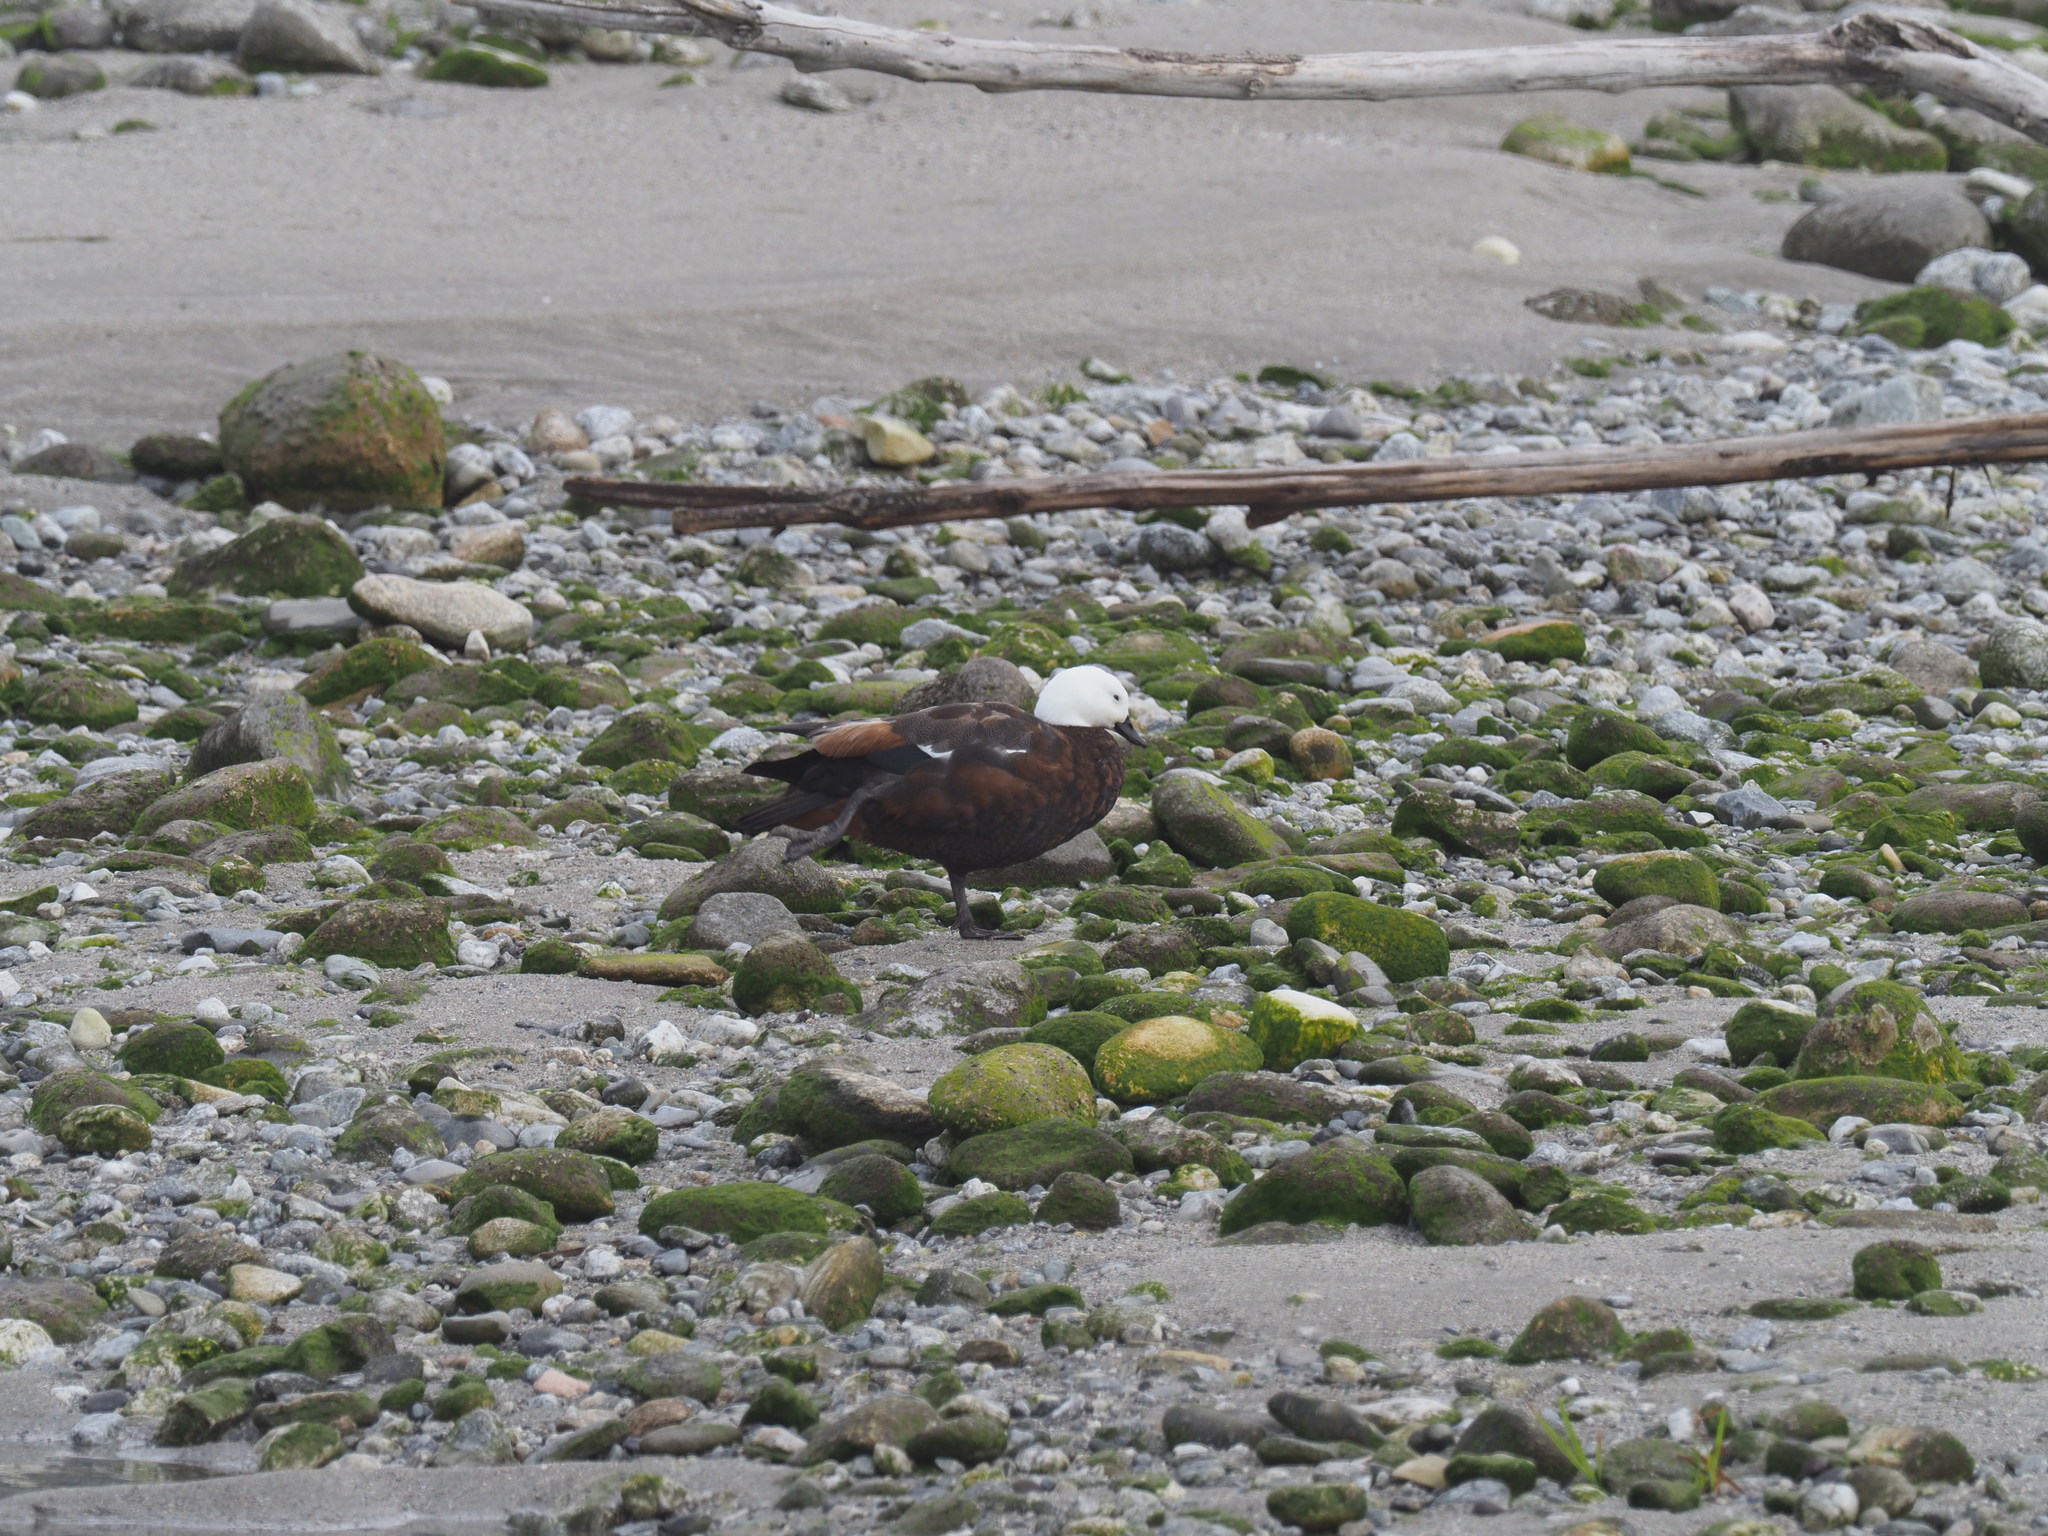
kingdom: Animalia
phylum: Chordata
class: Aves
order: Anseriformes
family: Anatidae
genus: Tadorna
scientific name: Tadorna variegata
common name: Paradise shelduck
